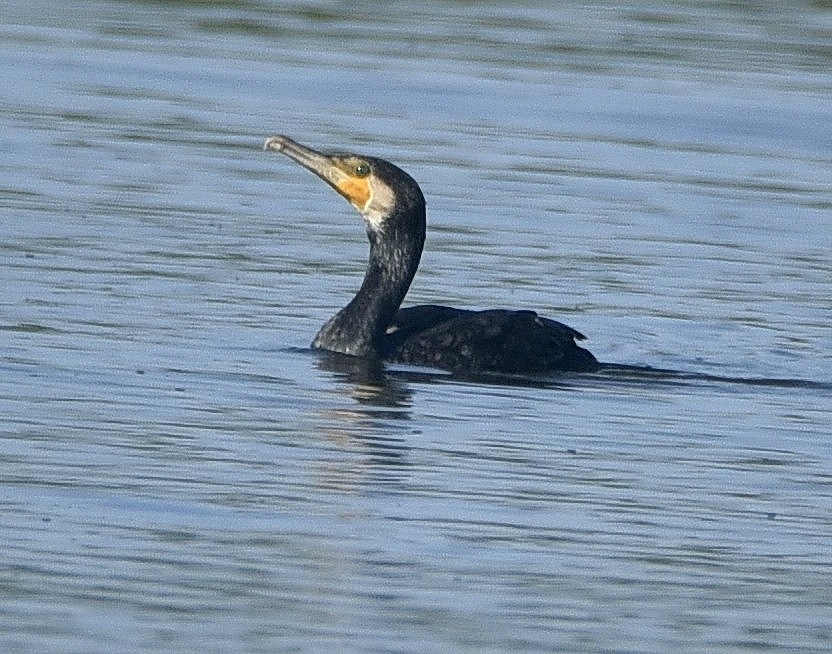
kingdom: Animalia
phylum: Chordata
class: Aves
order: Suliformes
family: Phalacrocoracidae
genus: Phalacrocorax
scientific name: Phalacrocorax carbo
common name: Great cormorant
